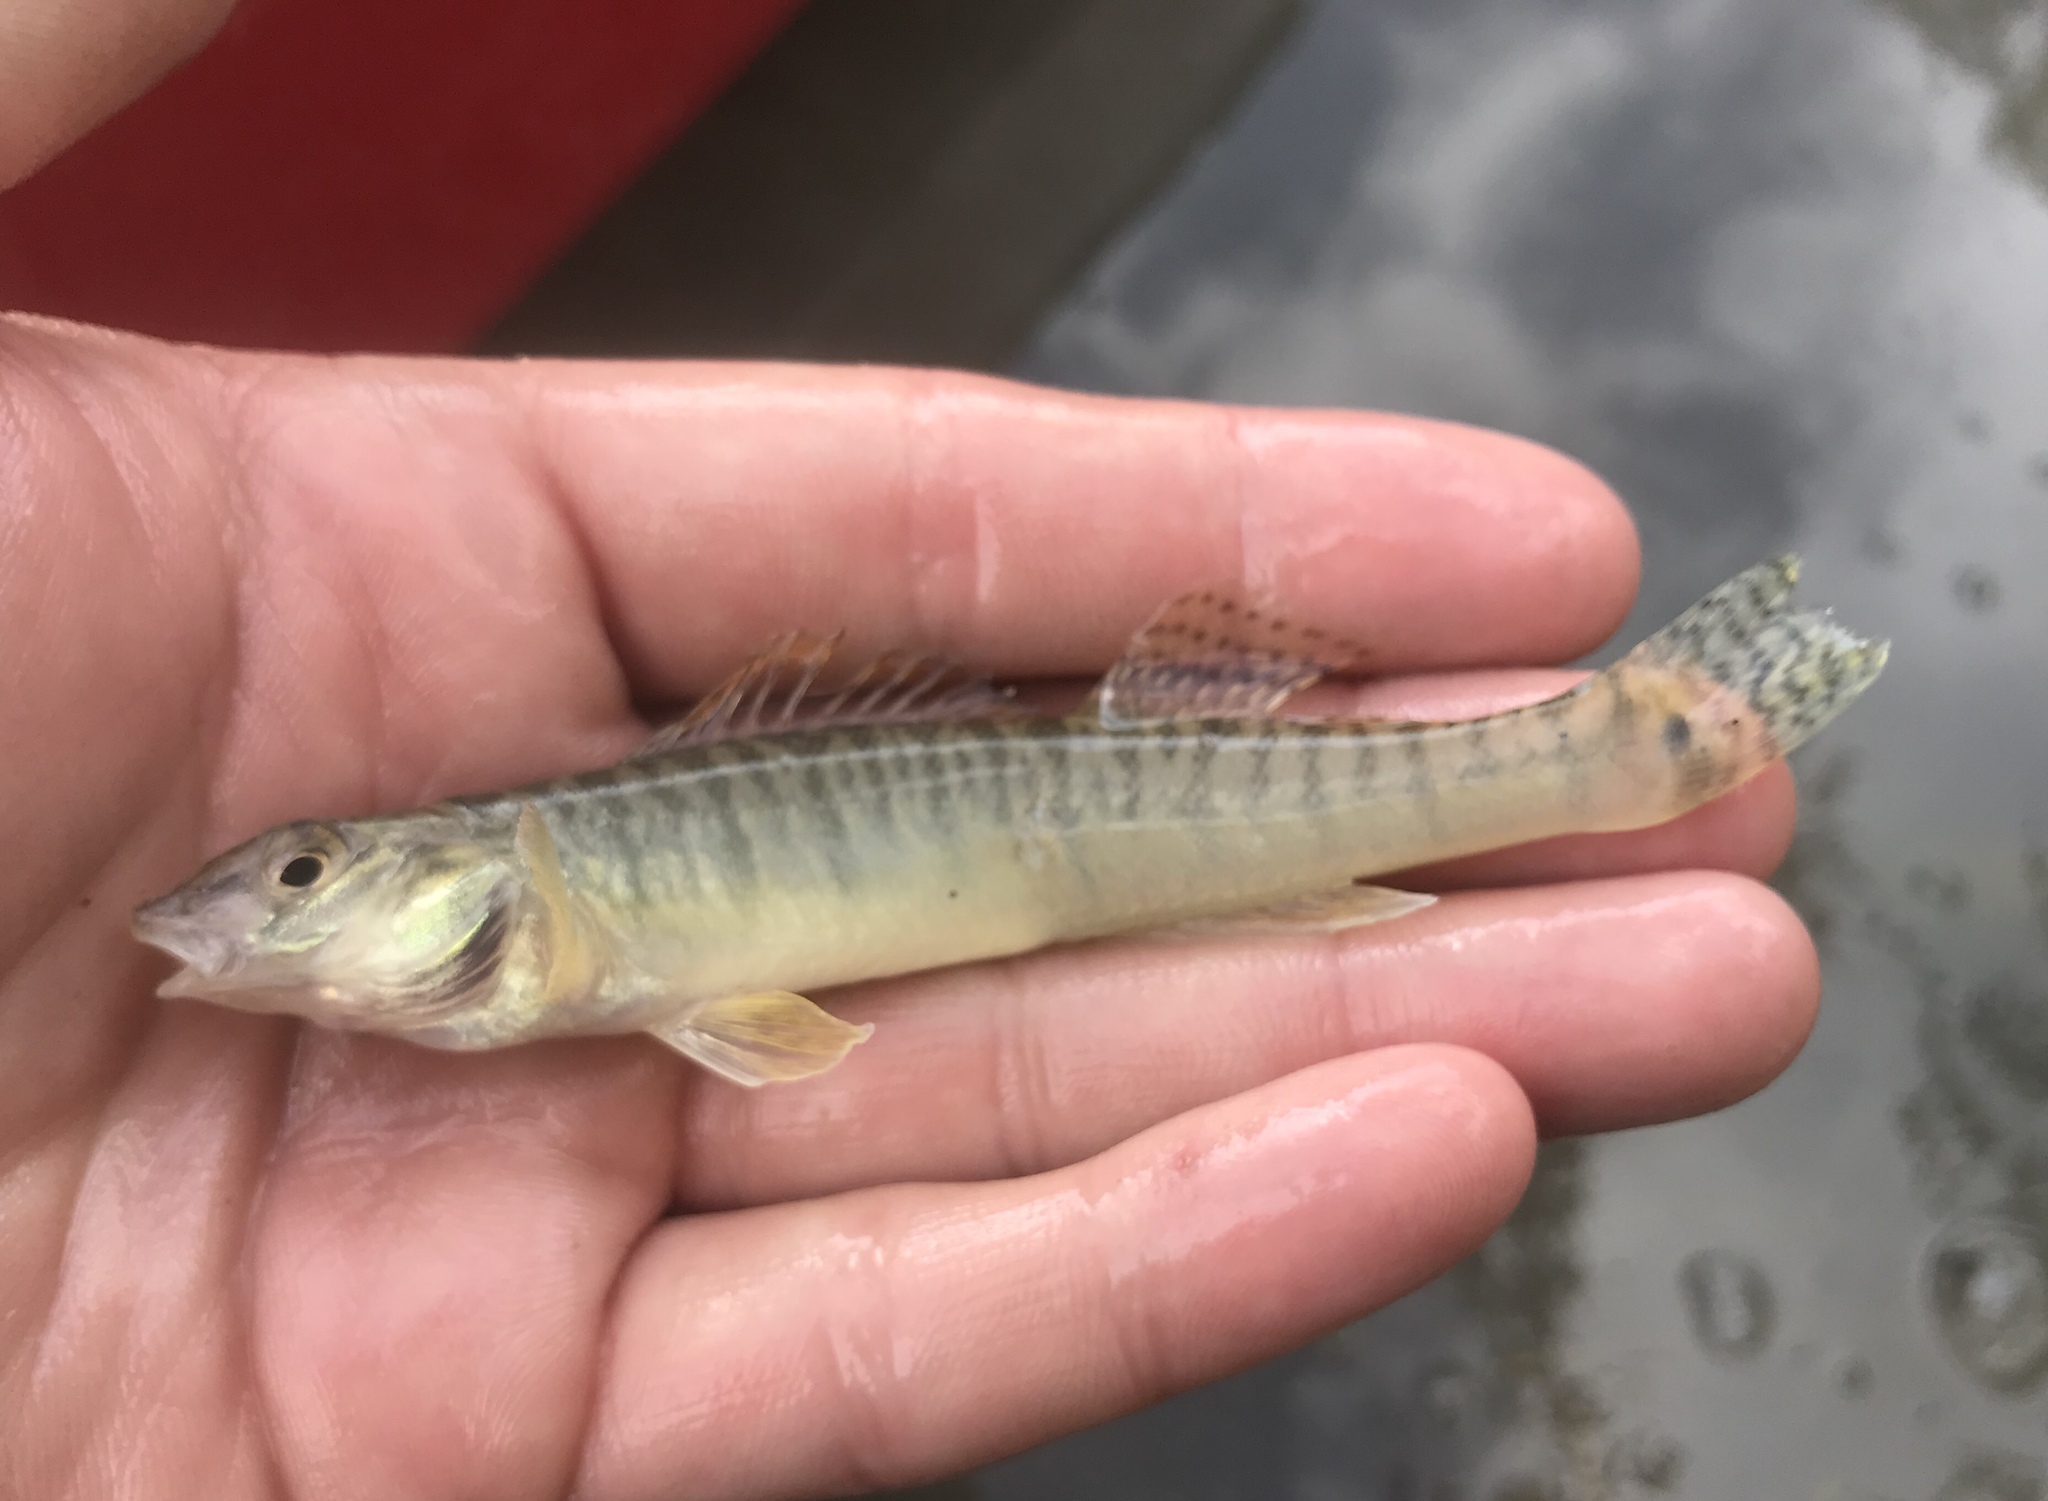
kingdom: Animalia
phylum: Chordata
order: Perciformes
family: Percidae
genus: Percina
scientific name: Percina carbonaria
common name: Texas logperch
